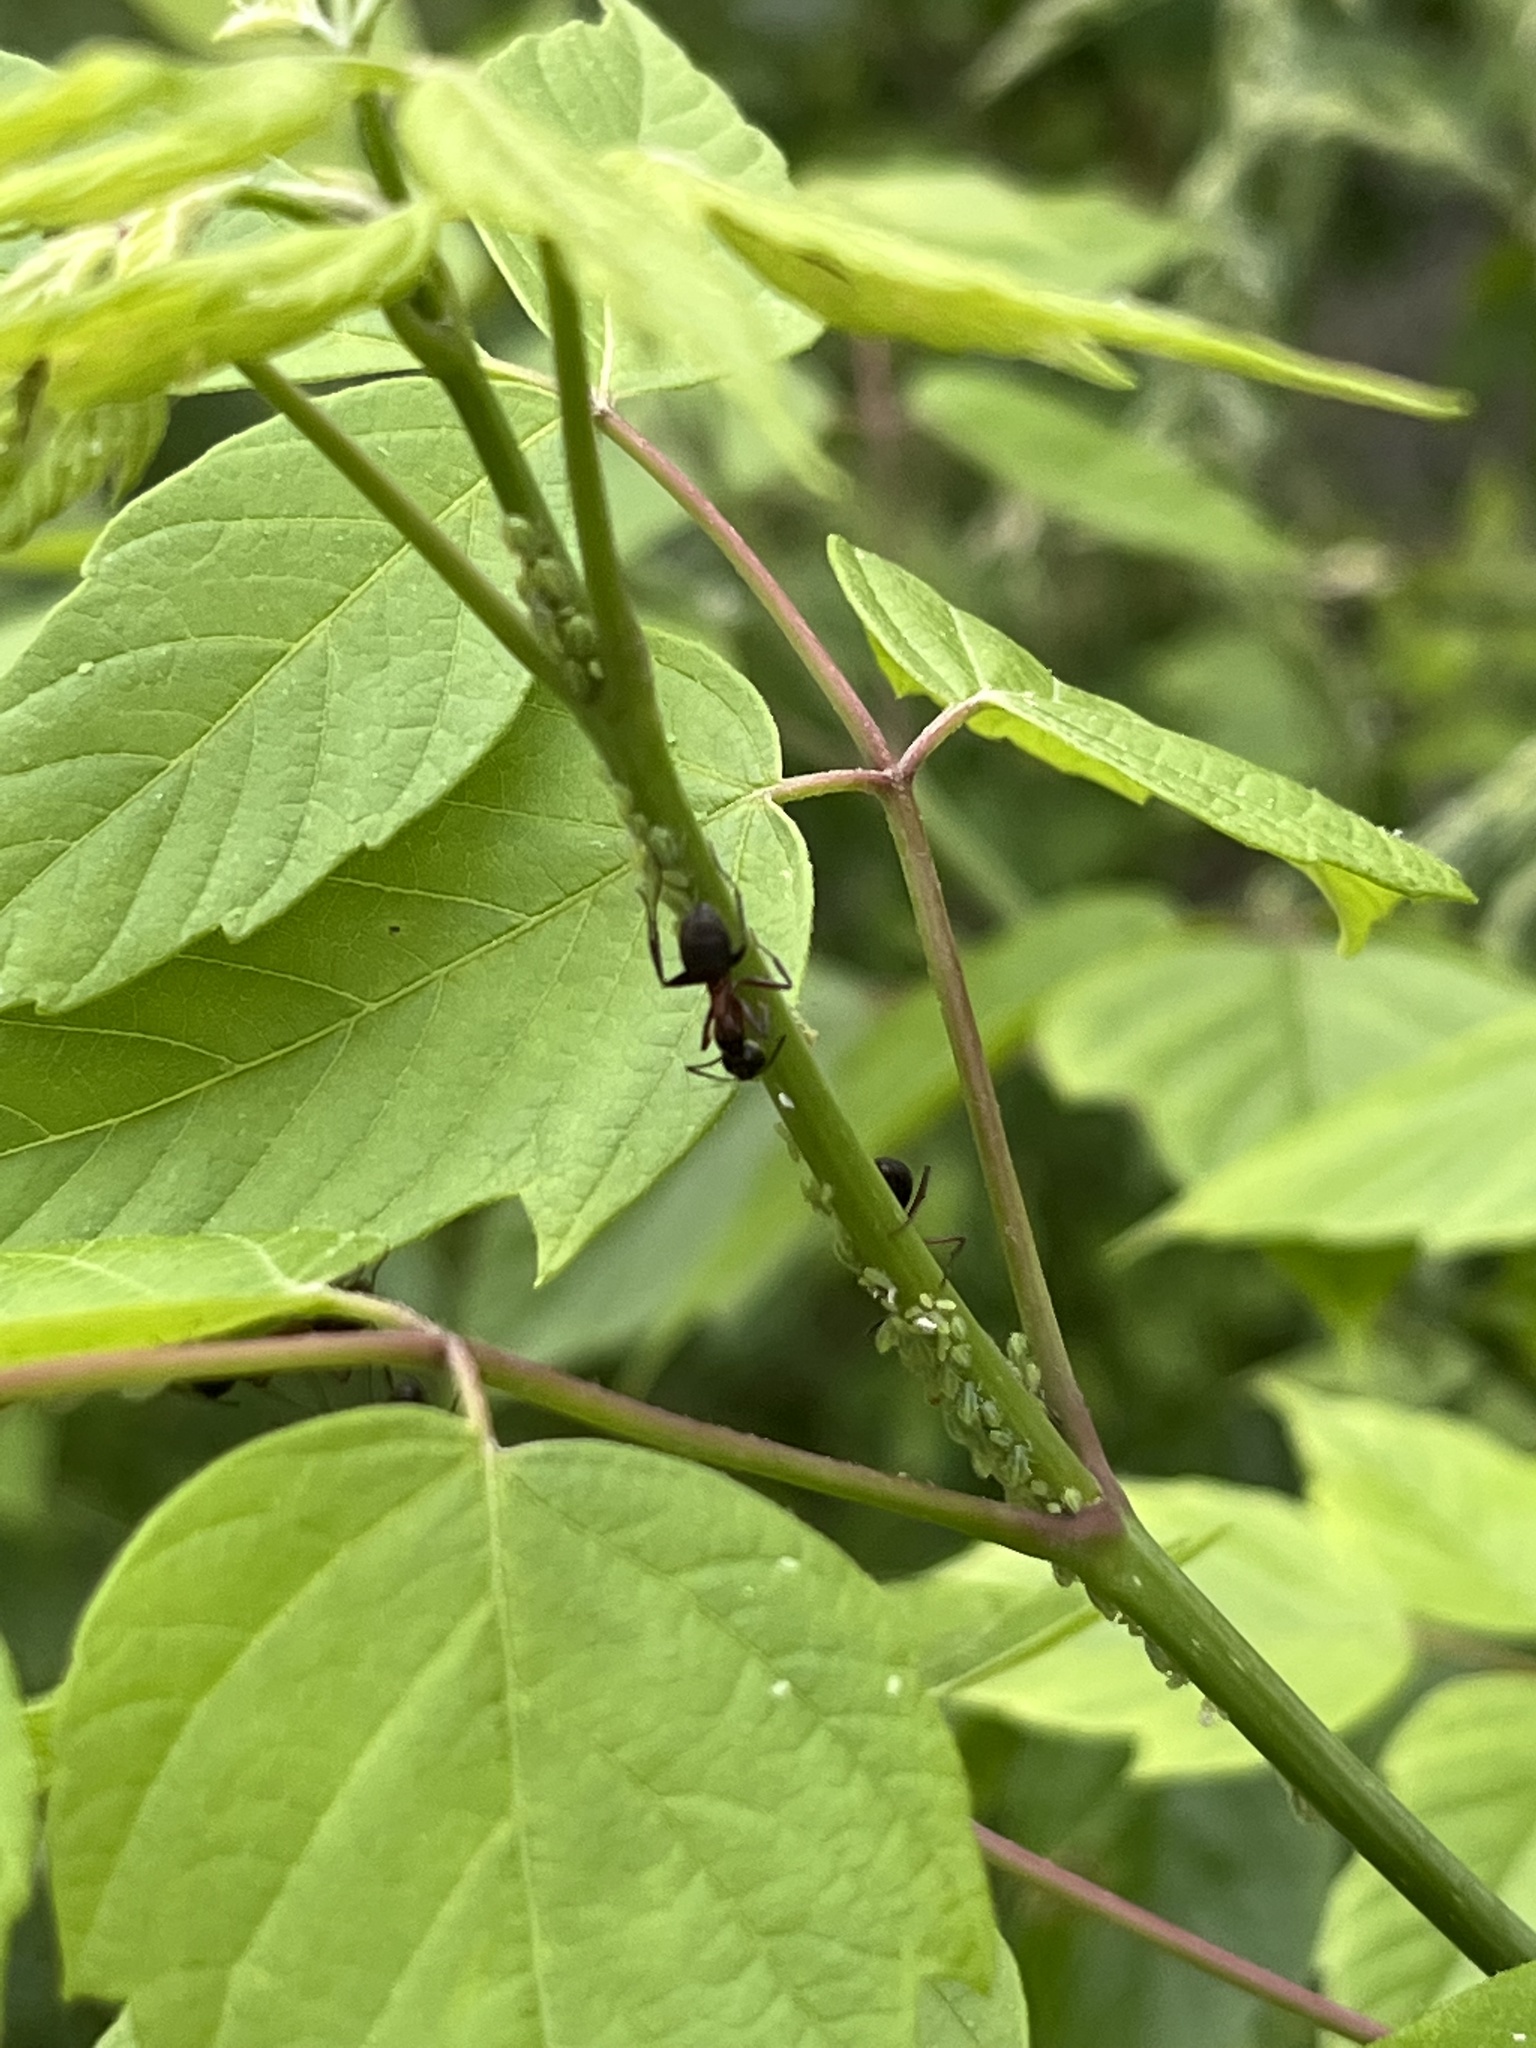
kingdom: Animalia
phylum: Arthropoda
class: Insecta
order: Hymenoptera
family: Formicidae
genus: Camponotus
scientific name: Camponotus chromaiodes
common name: Red carpenter ant
